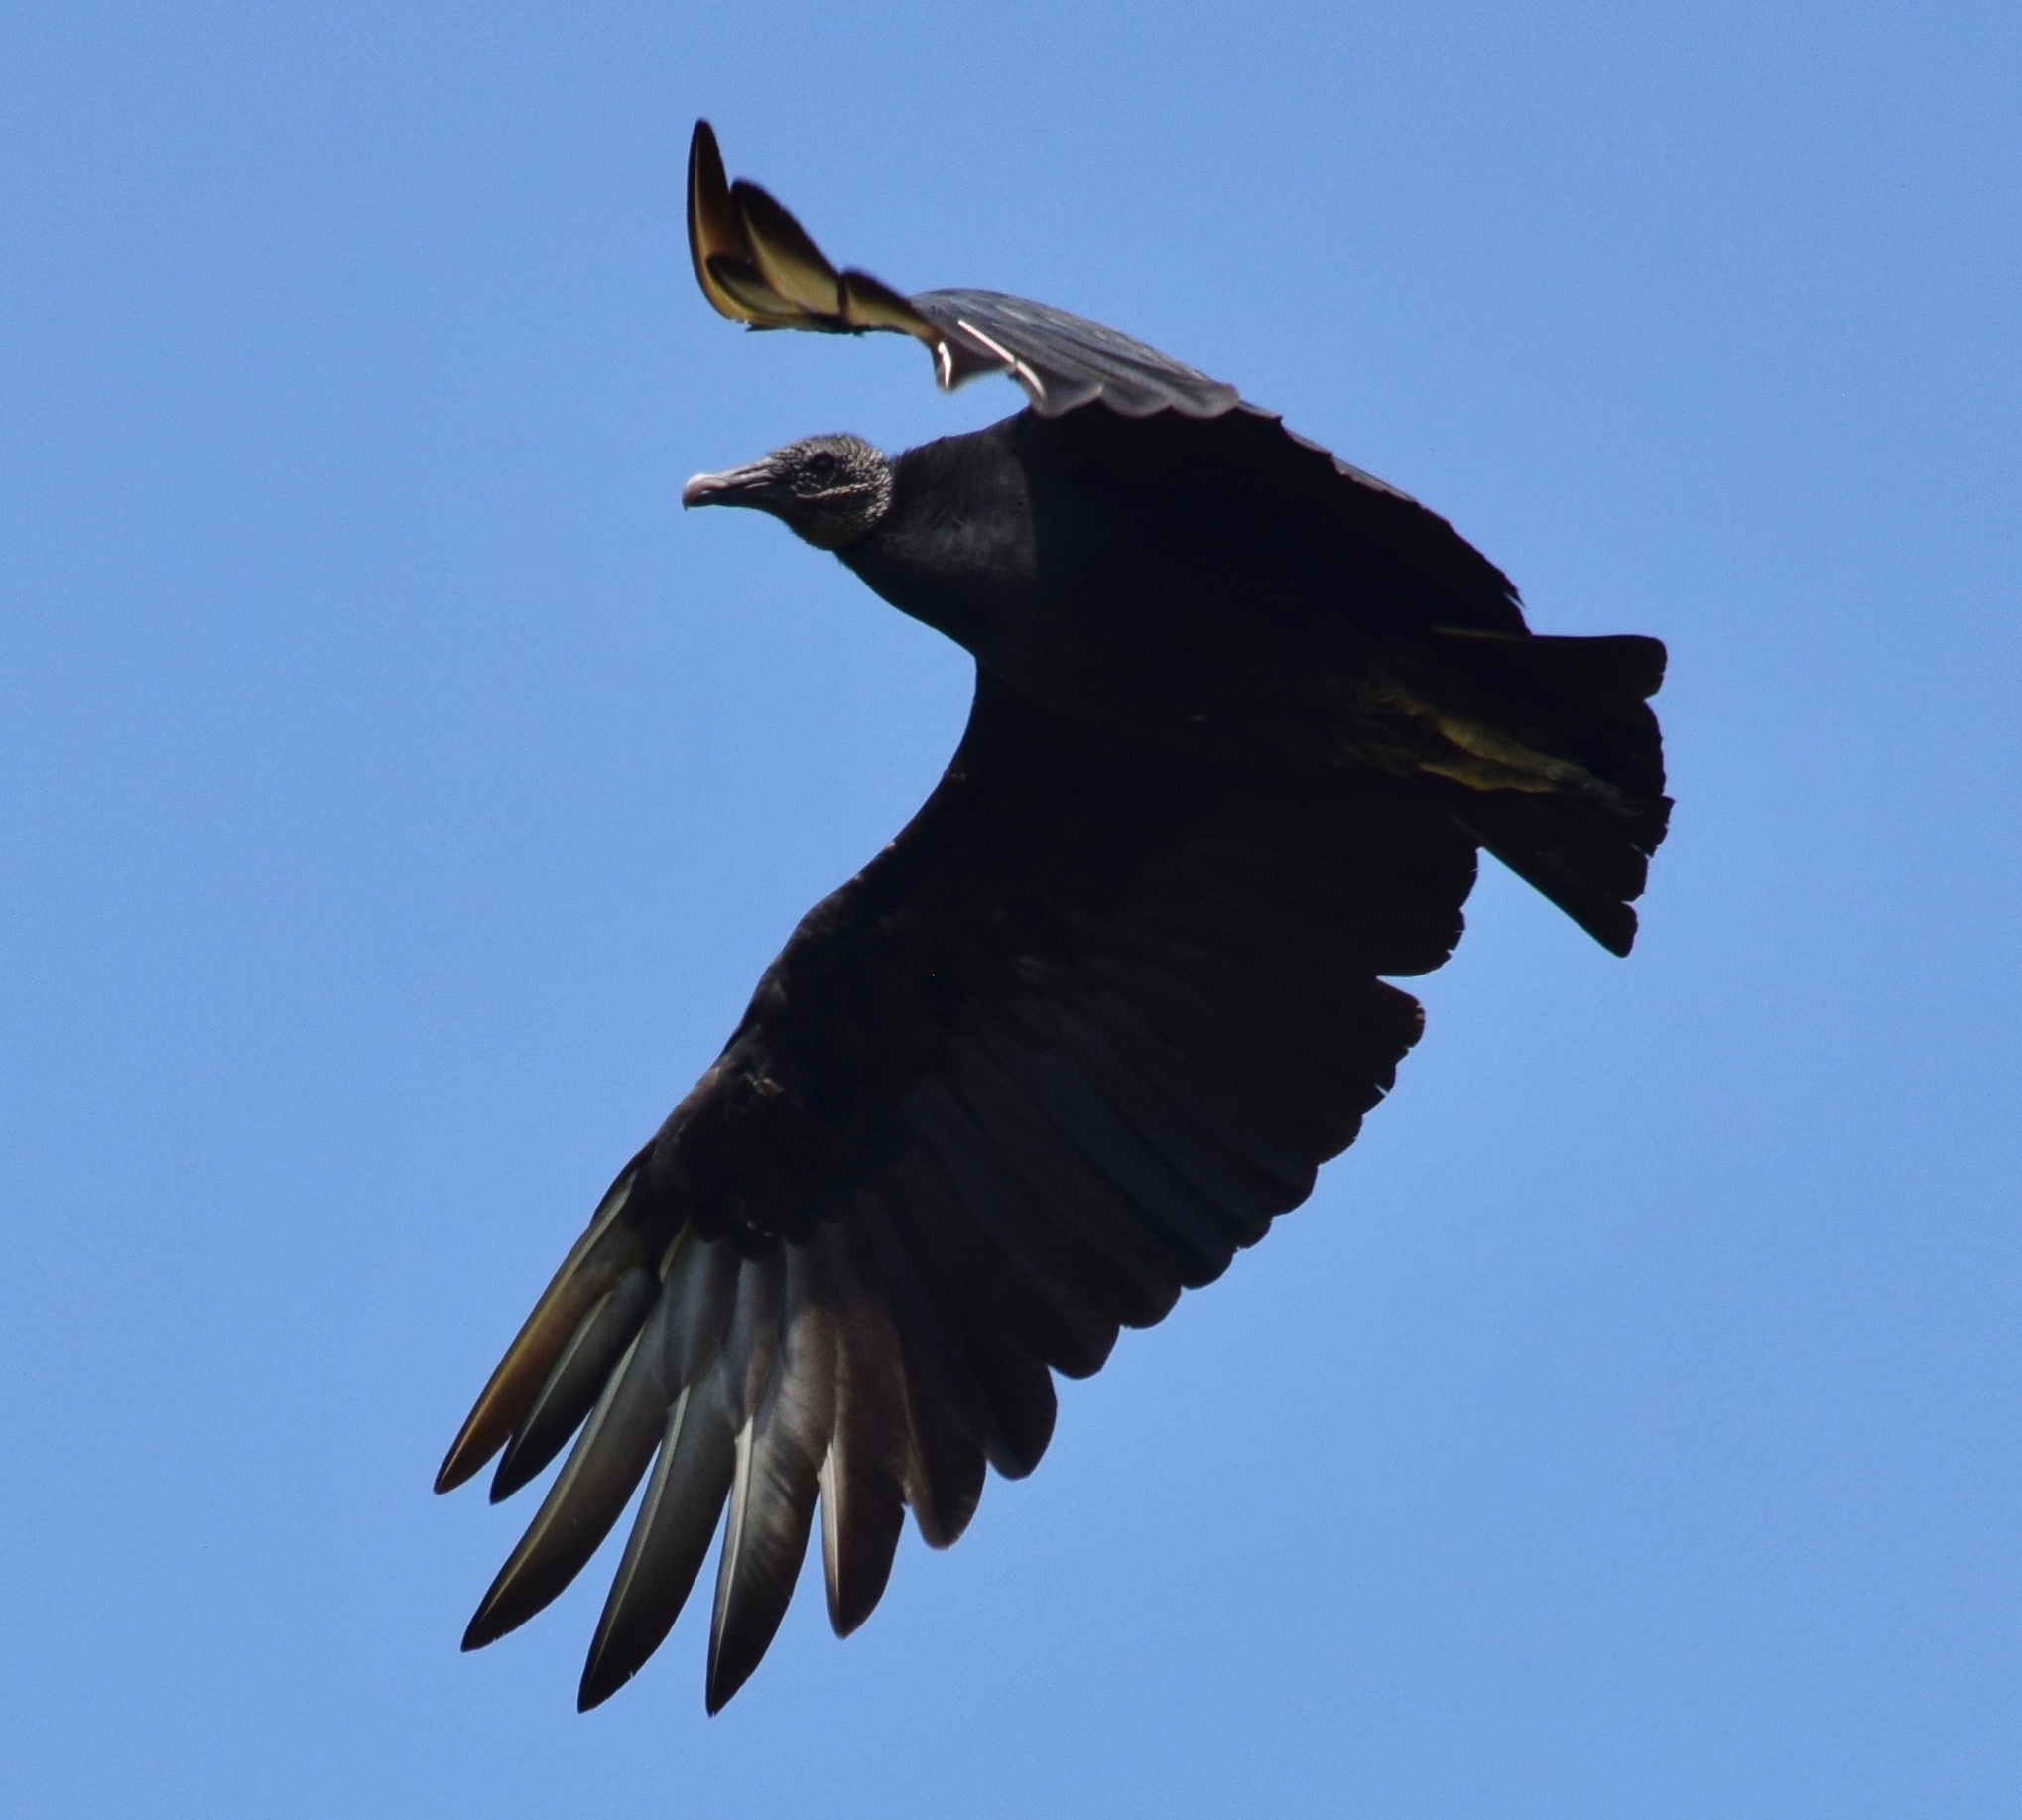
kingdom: Animalia
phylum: Chordata
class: Aves
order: Accipitriformes
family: Cathartidae
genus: Coragyps
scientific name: Coragyps atratus
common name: Black vulture
